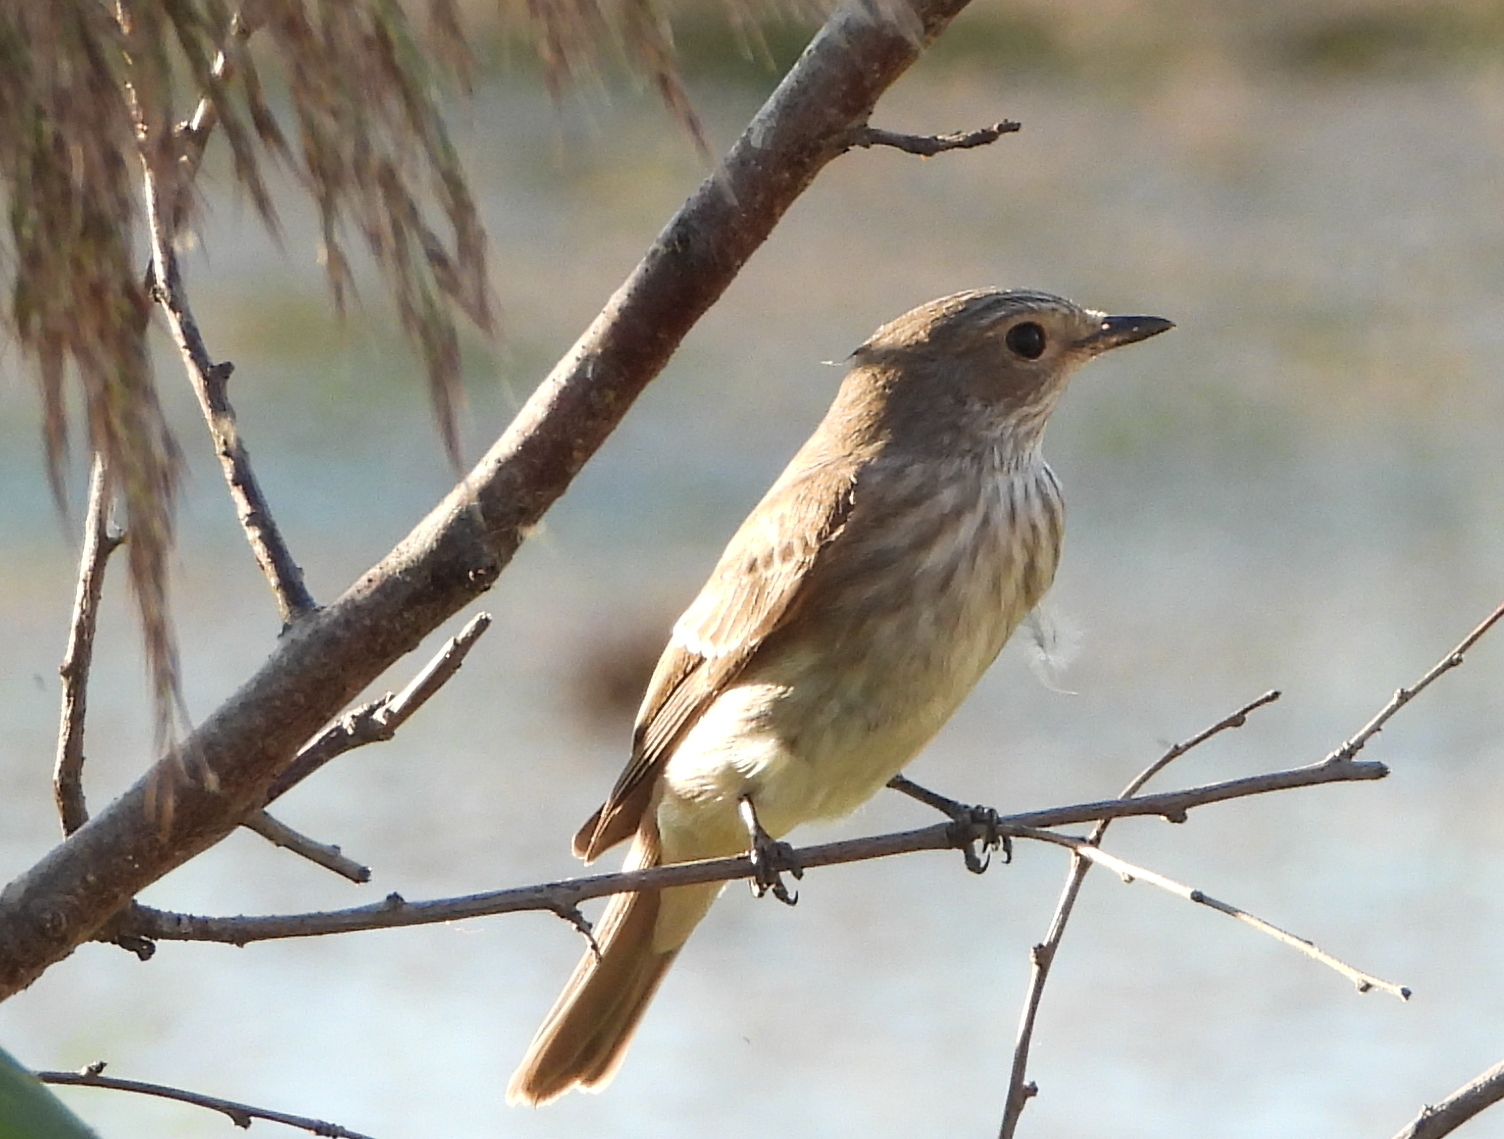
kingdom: Animalia
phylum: Chordata
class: Aves
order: Passeriformes
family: Muscicapidae
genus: Muscicapa
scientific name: Muscicapa striata
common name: Spotted flycatcher
